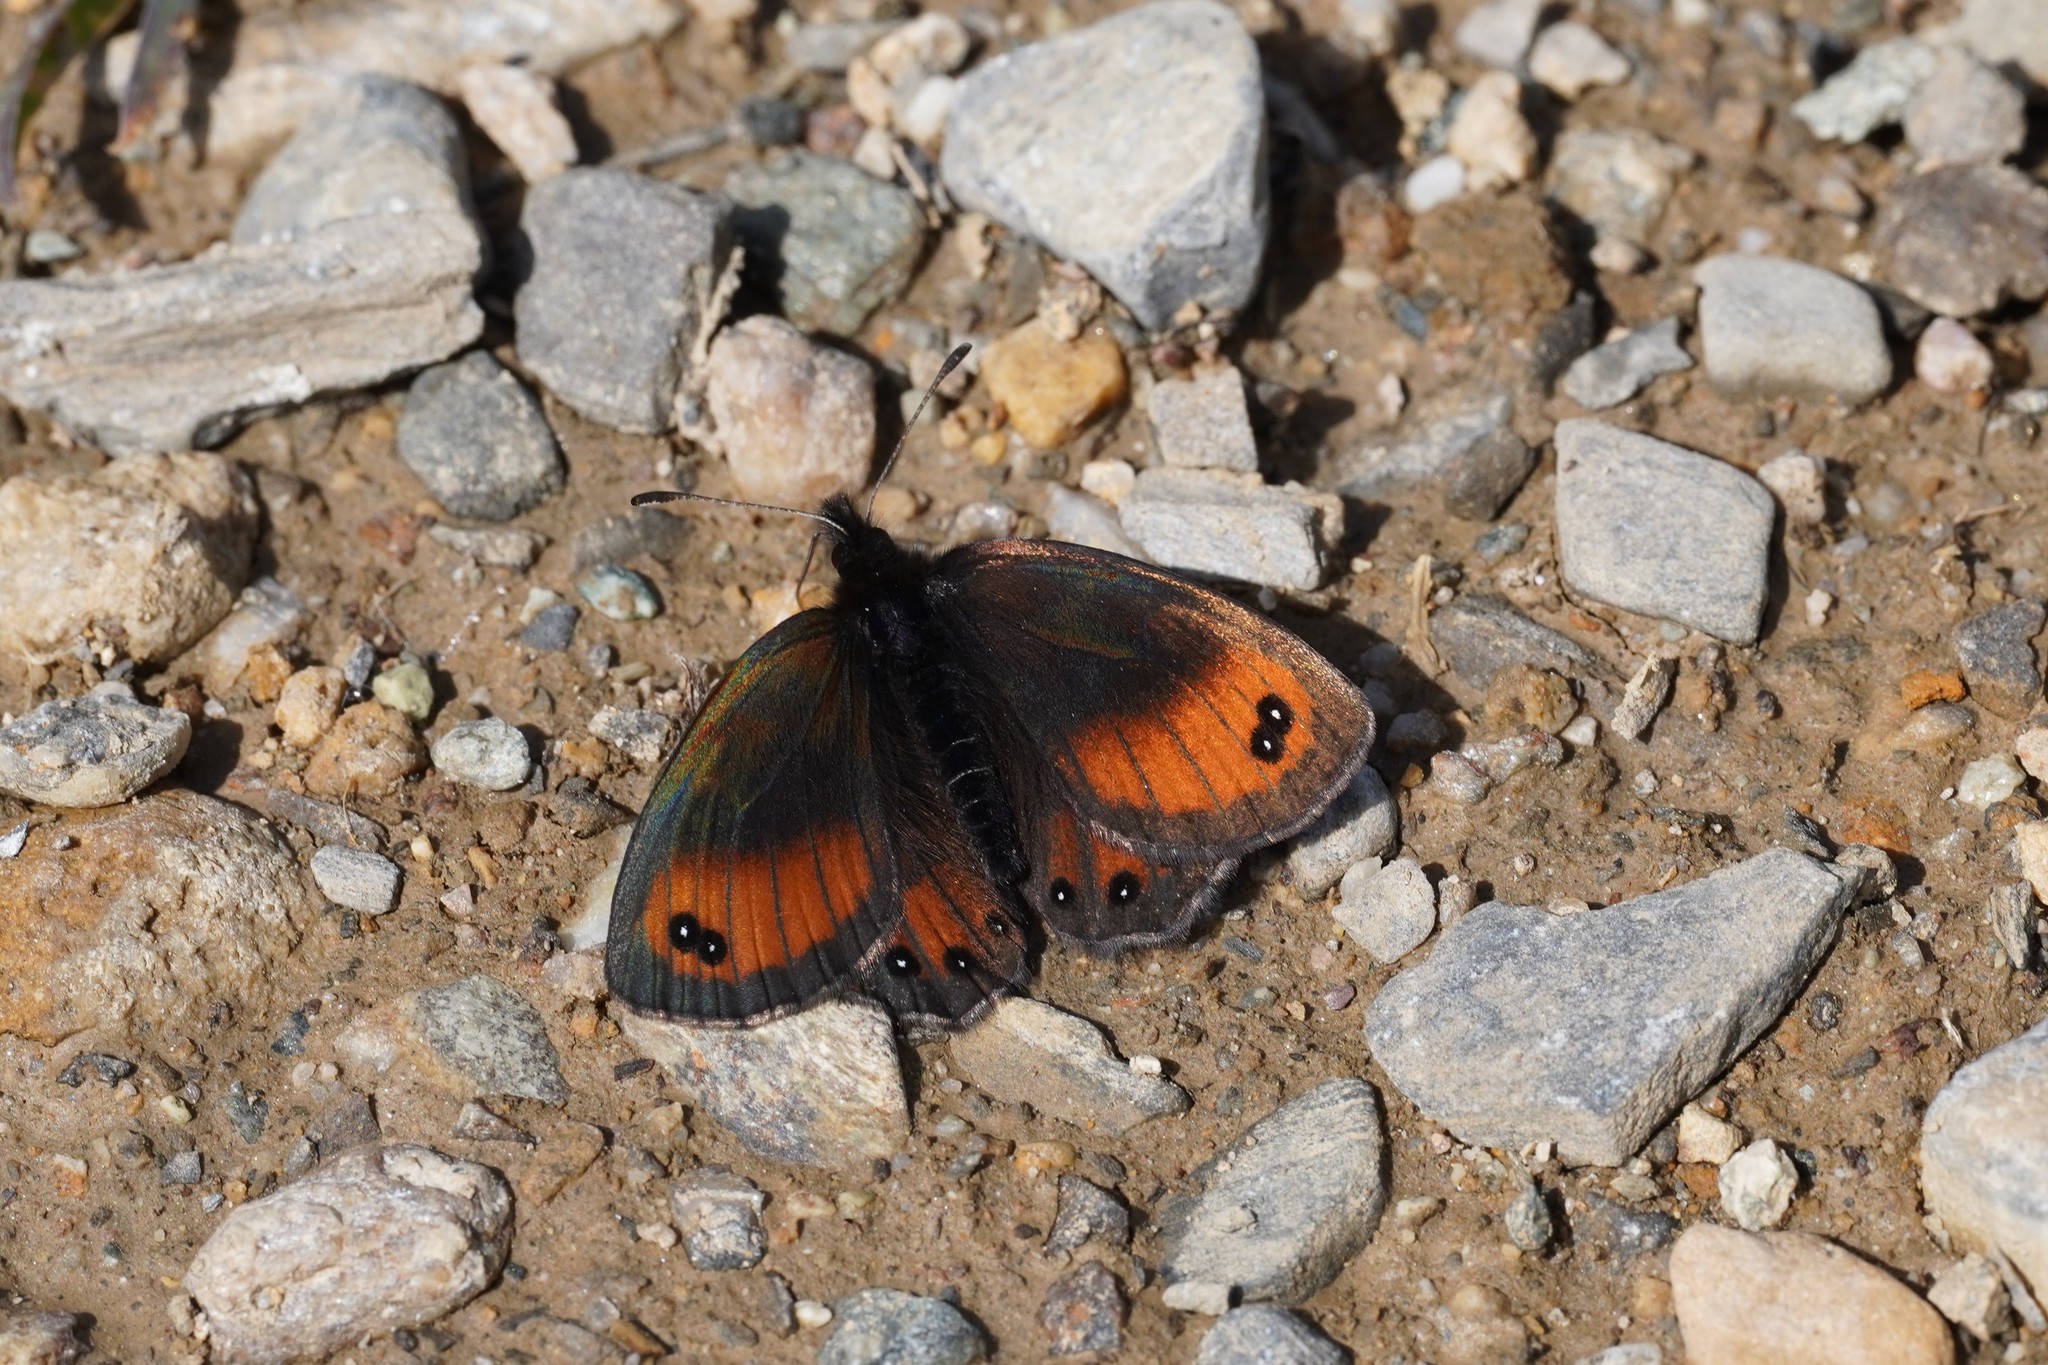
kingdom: Animalia
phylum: Arthropoda
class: Insecta
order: Lepidoptera
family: Nymphalidae
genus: Erebia
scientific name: Erebia gorge
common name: Silky ringlet
